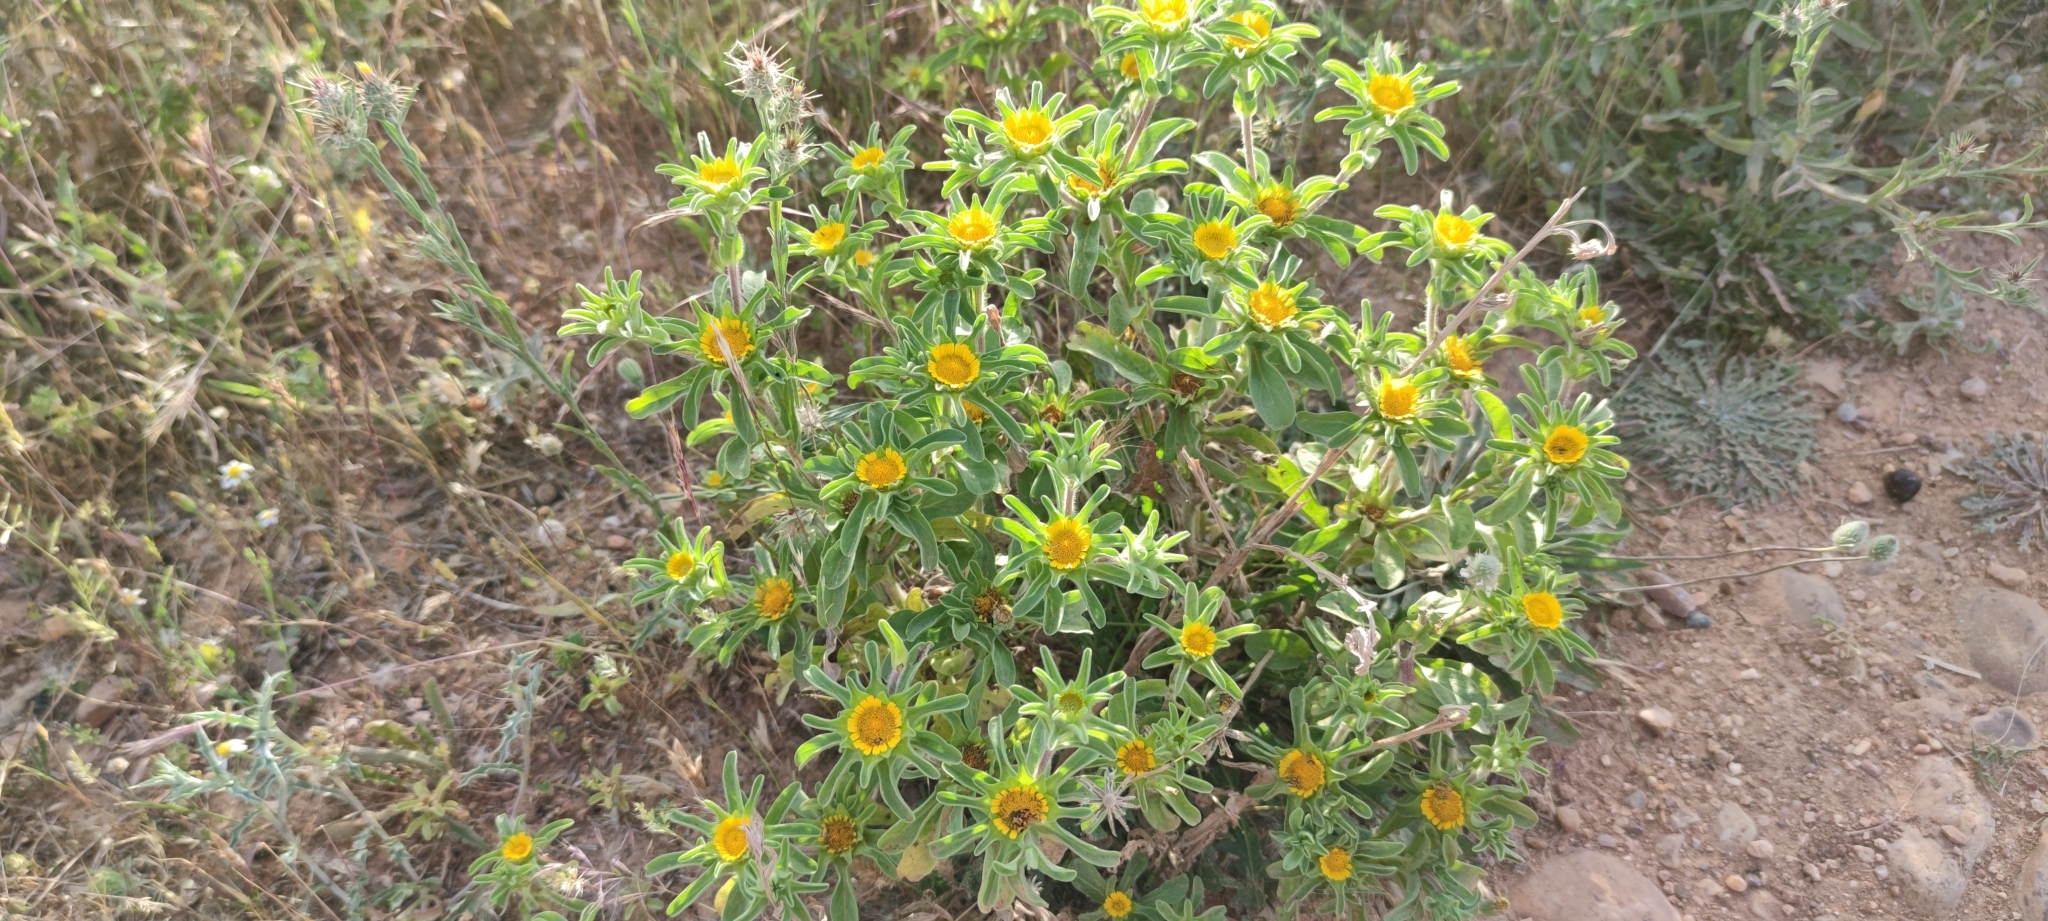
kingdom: Plantae
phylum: Tracheophyta
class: Magnoliopsida
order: Asterales
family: Asteraceae
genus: Asteriscus
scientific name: Asteriscus aquaticus
